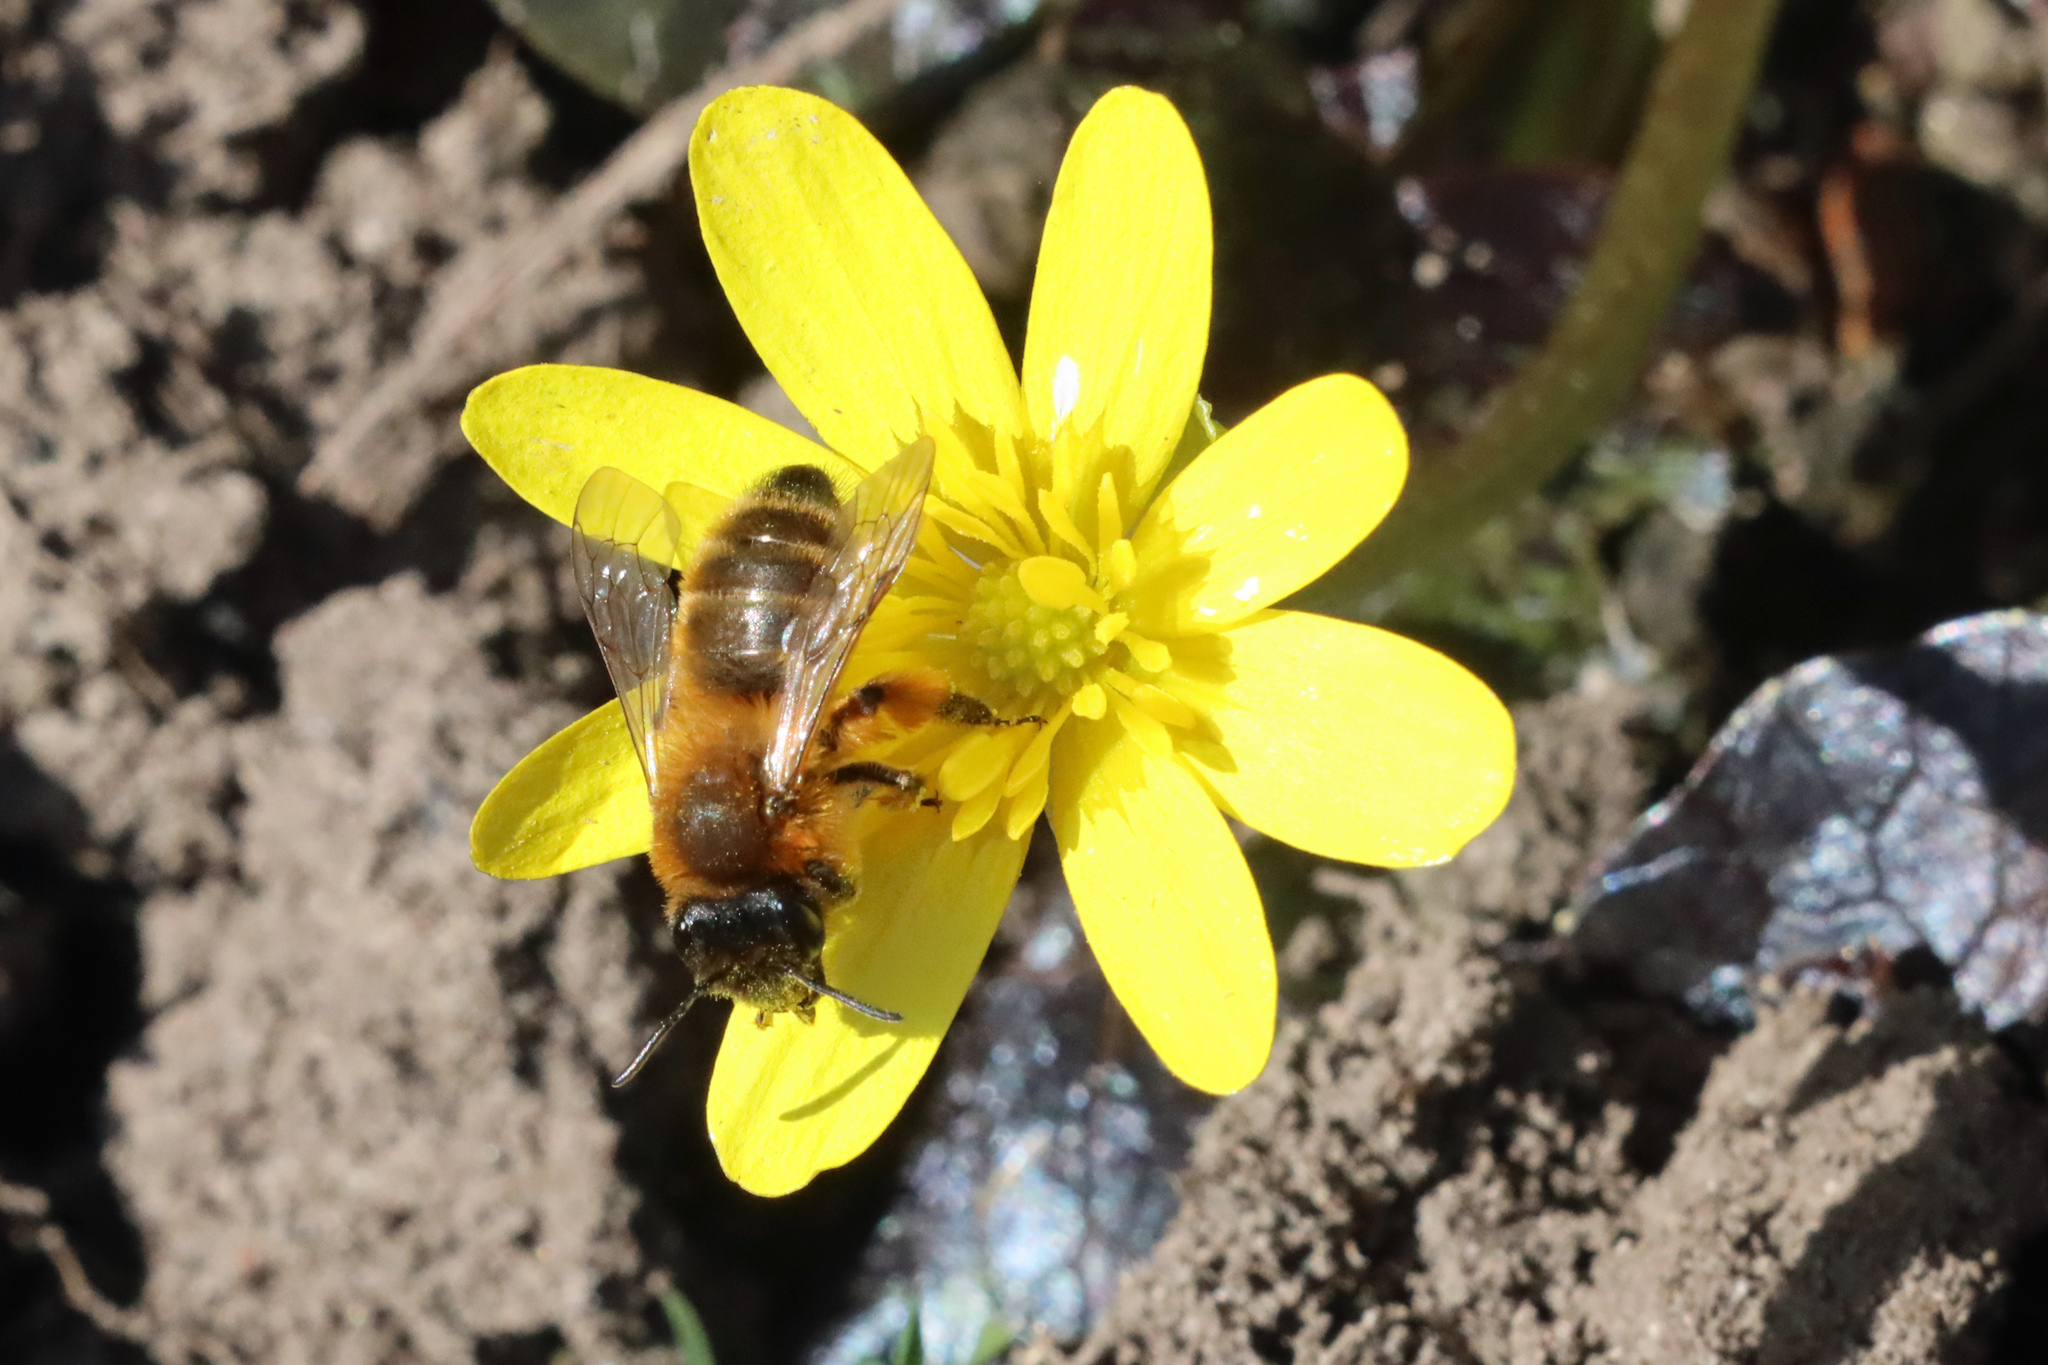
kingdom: Animalia
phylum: Arthropoda
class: Insecta
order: Hymenoptera
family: Andrenidae
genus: Andrena
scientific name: Andrena nigroaenea
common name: Buffish mining bee
